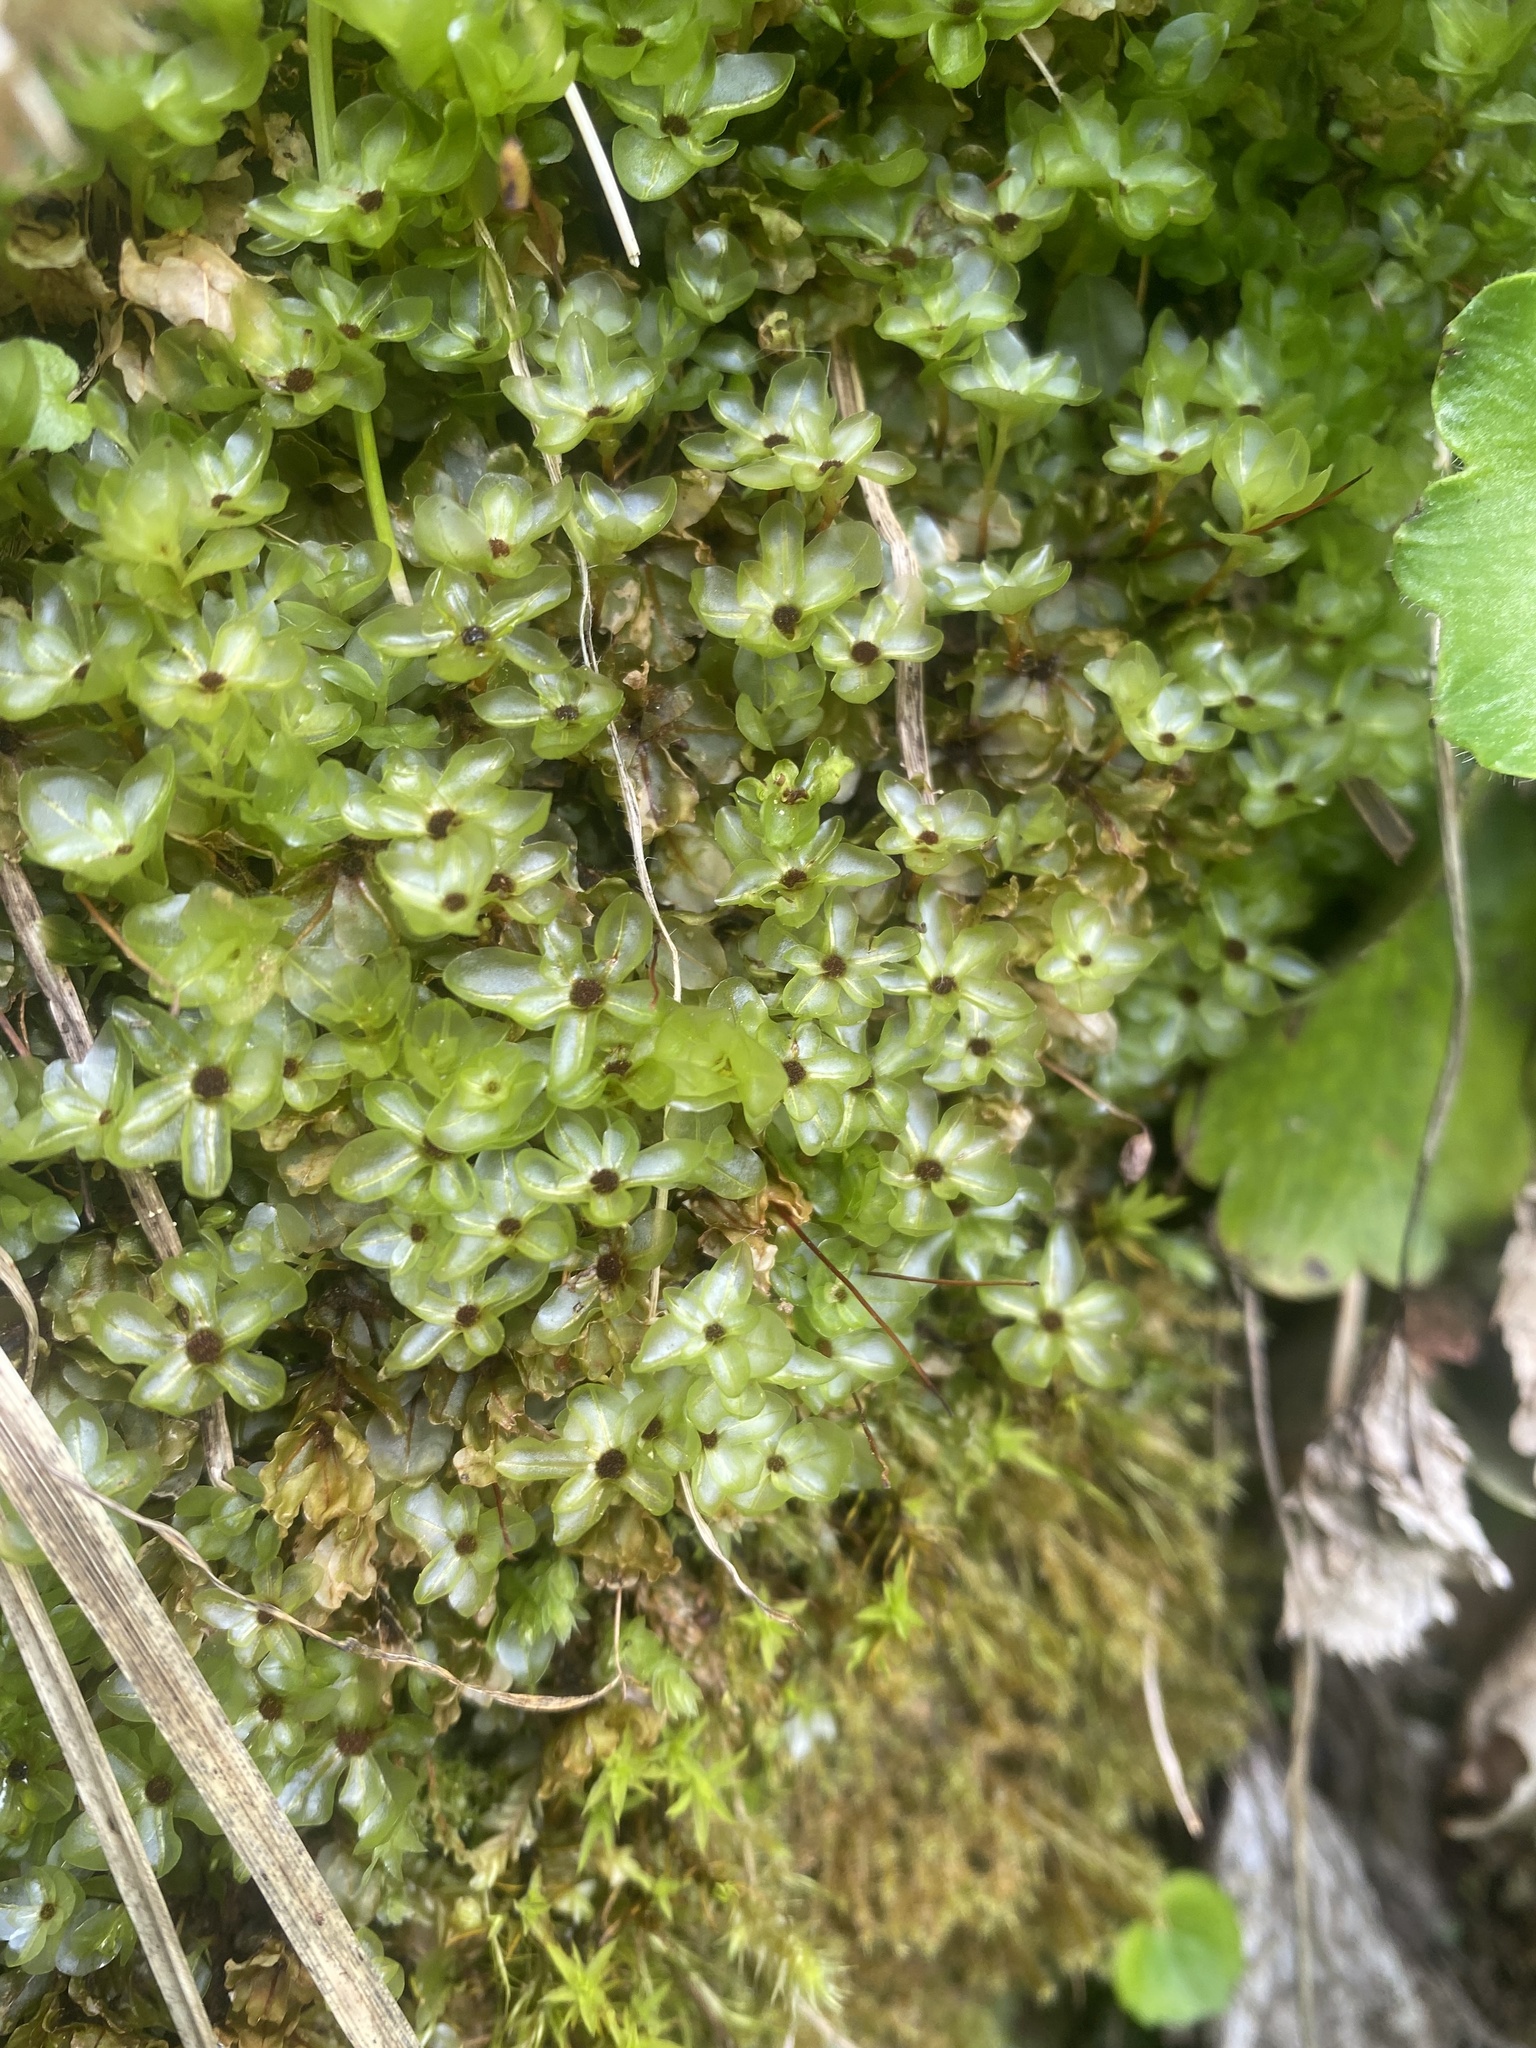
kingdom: Plantae
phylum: Bryophyta
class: Bryopsida
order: Bryales
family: Mniaceae
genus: Rhizomnium
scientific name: Rhizomnium punctatum
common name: Dotted leafy moss
